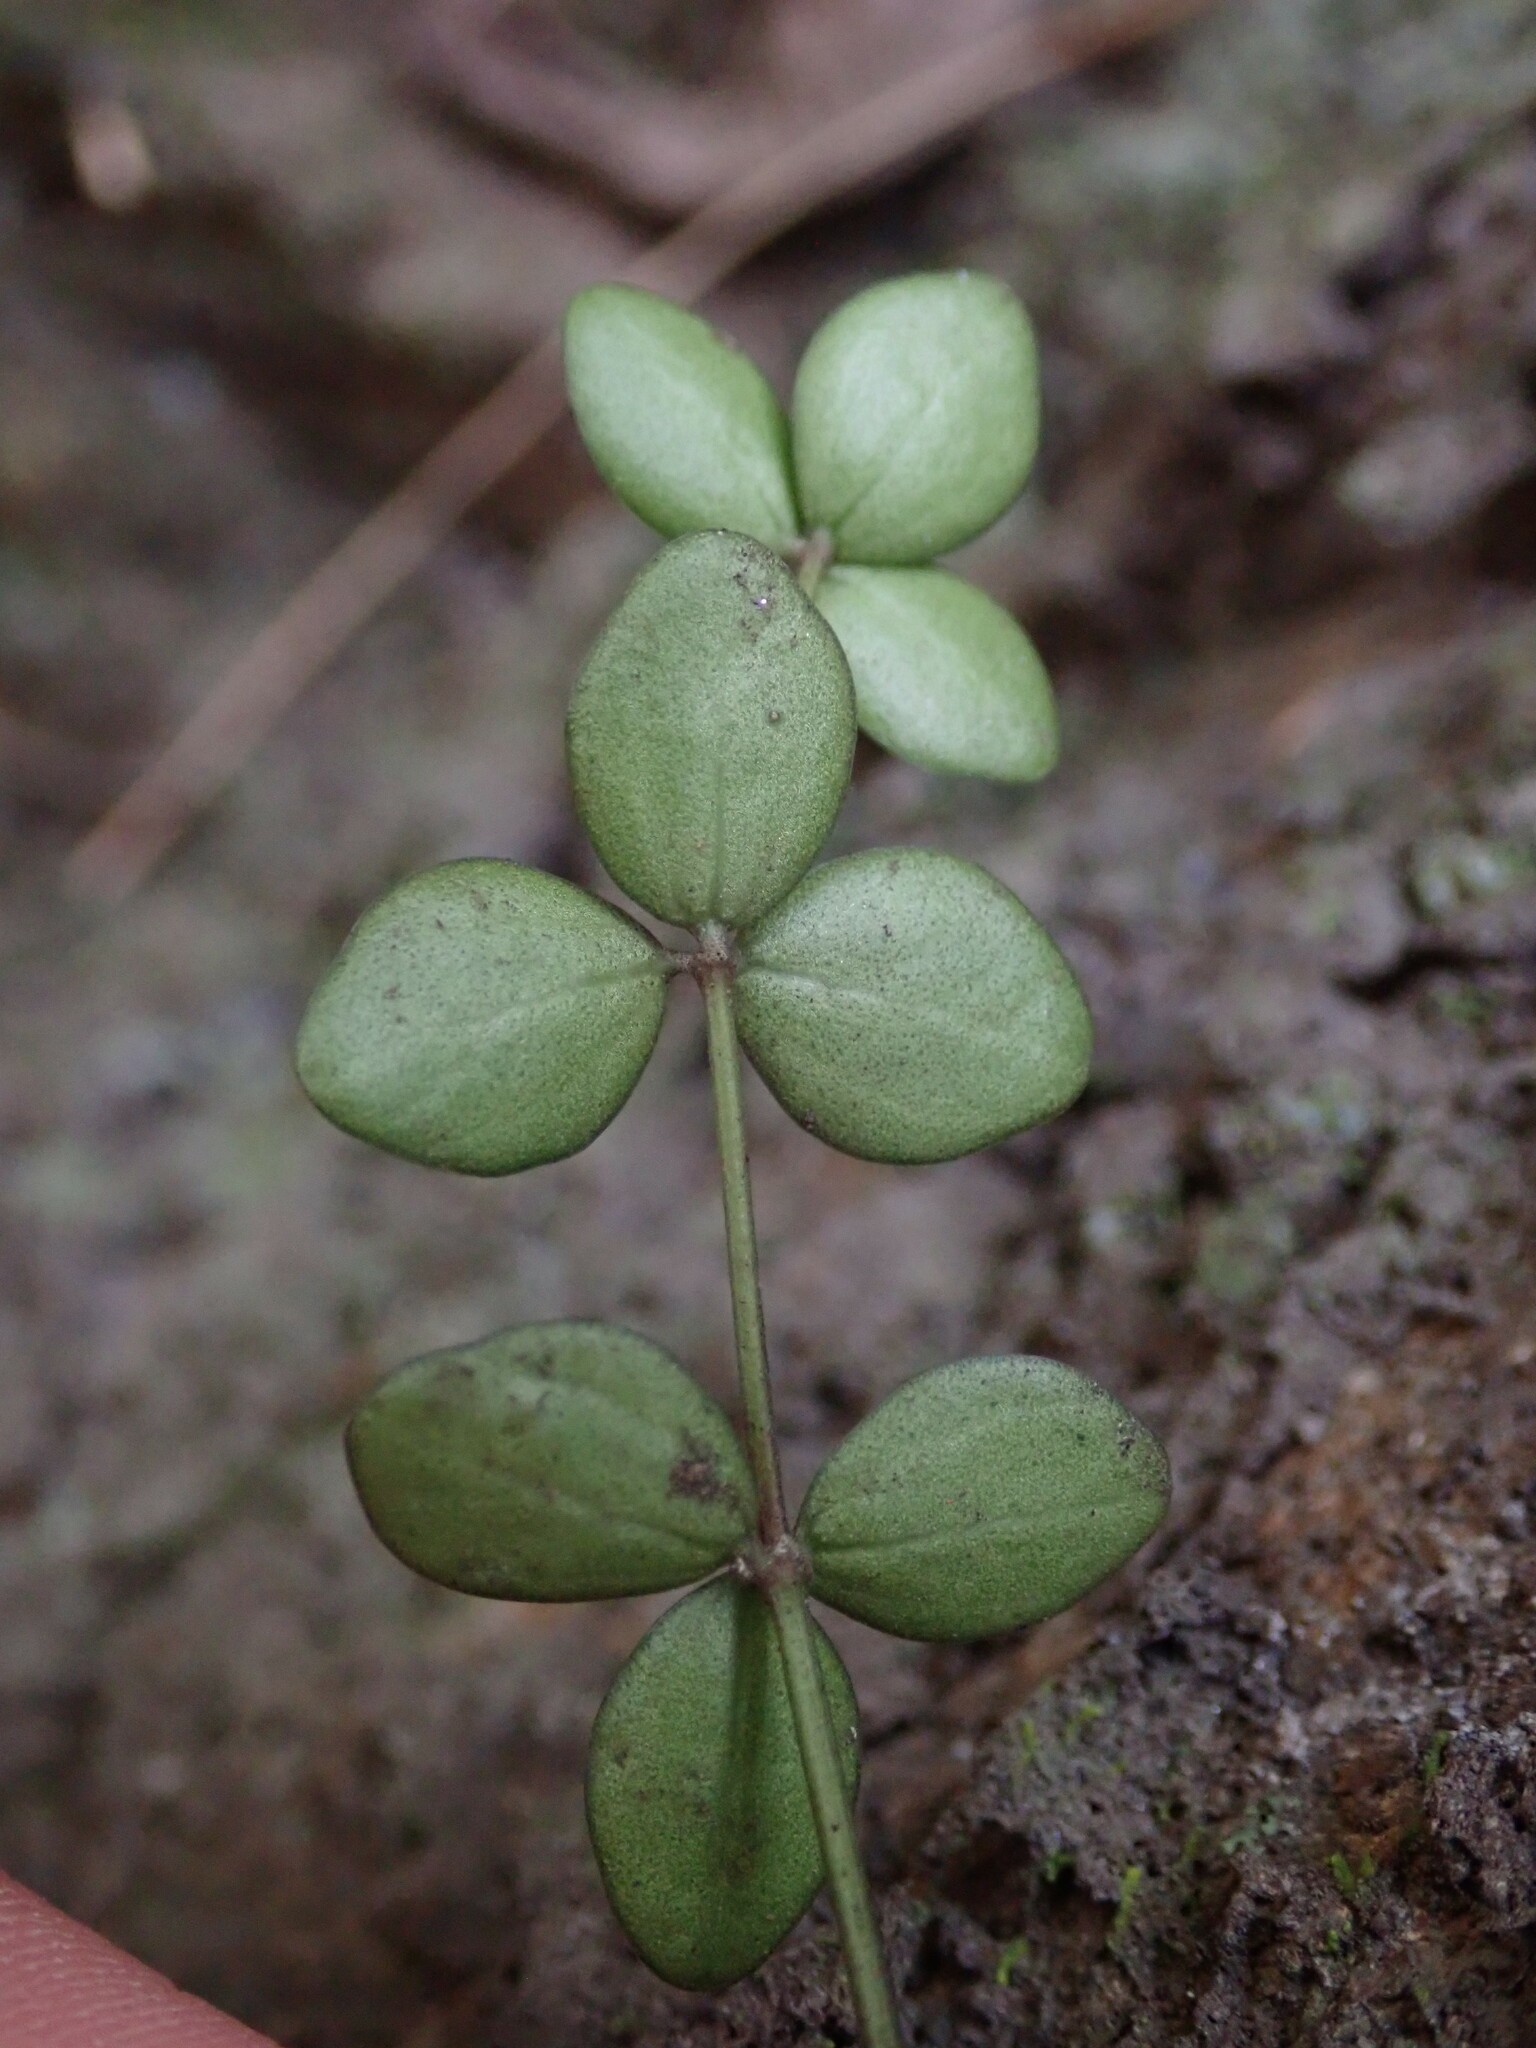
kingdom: Plantae
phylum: Tracheophyta
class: Magnoliopsida
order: Piperales
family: Piperaceae
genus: Peperomia
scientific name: Peperomia tetraphylla
